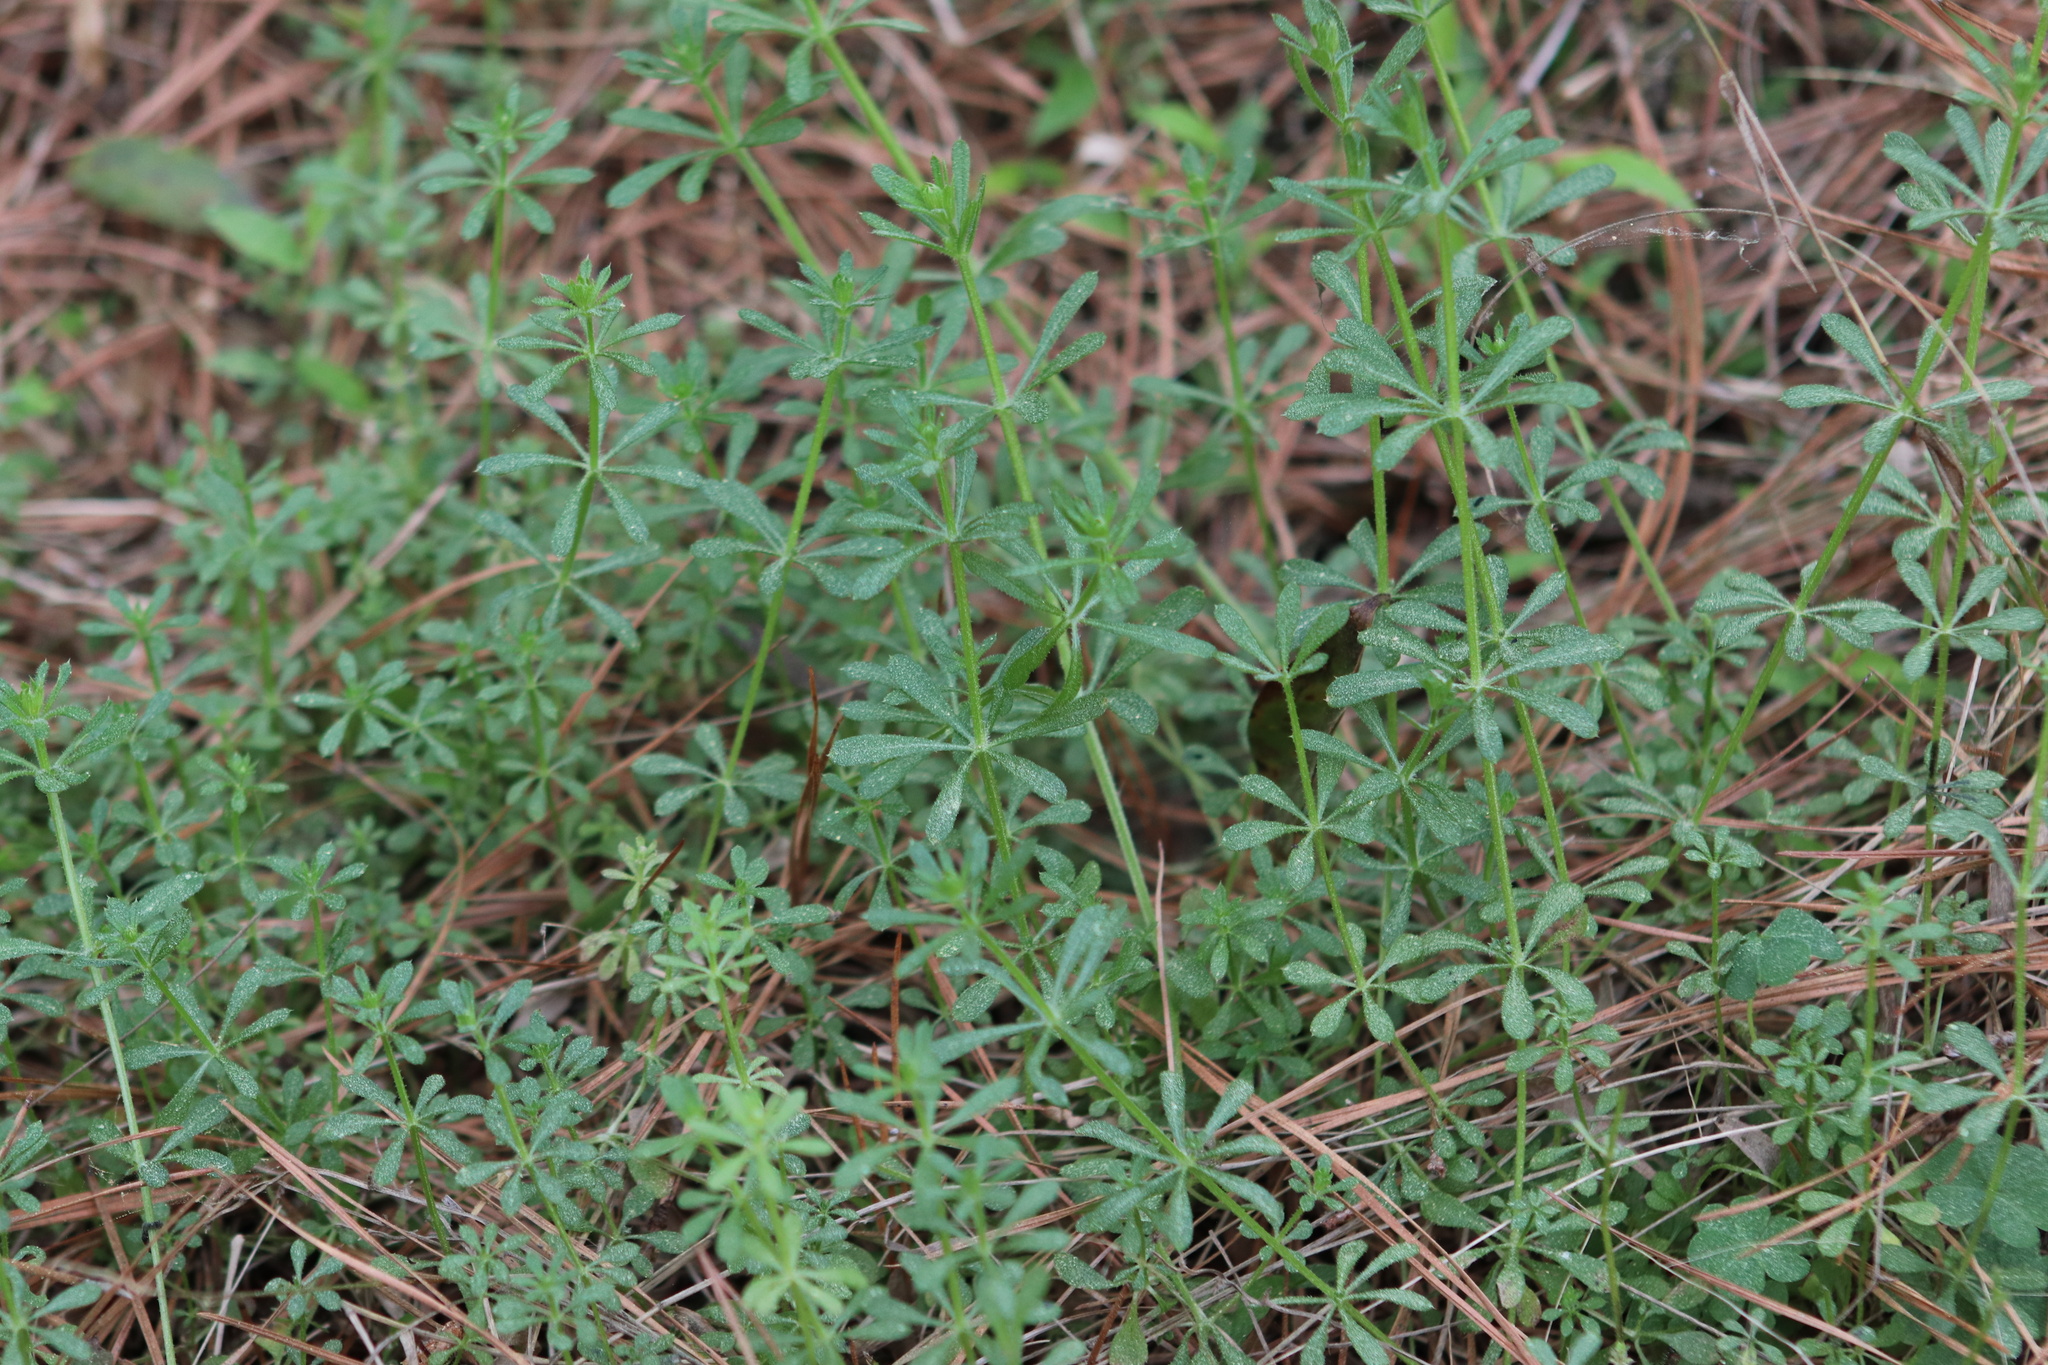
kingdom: Plantae
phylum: Tracheophyta
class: Magnoliopsida
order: Gentianales
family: Rubiaceae
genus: Galium
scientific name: Galium aparine
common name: Cleavers
